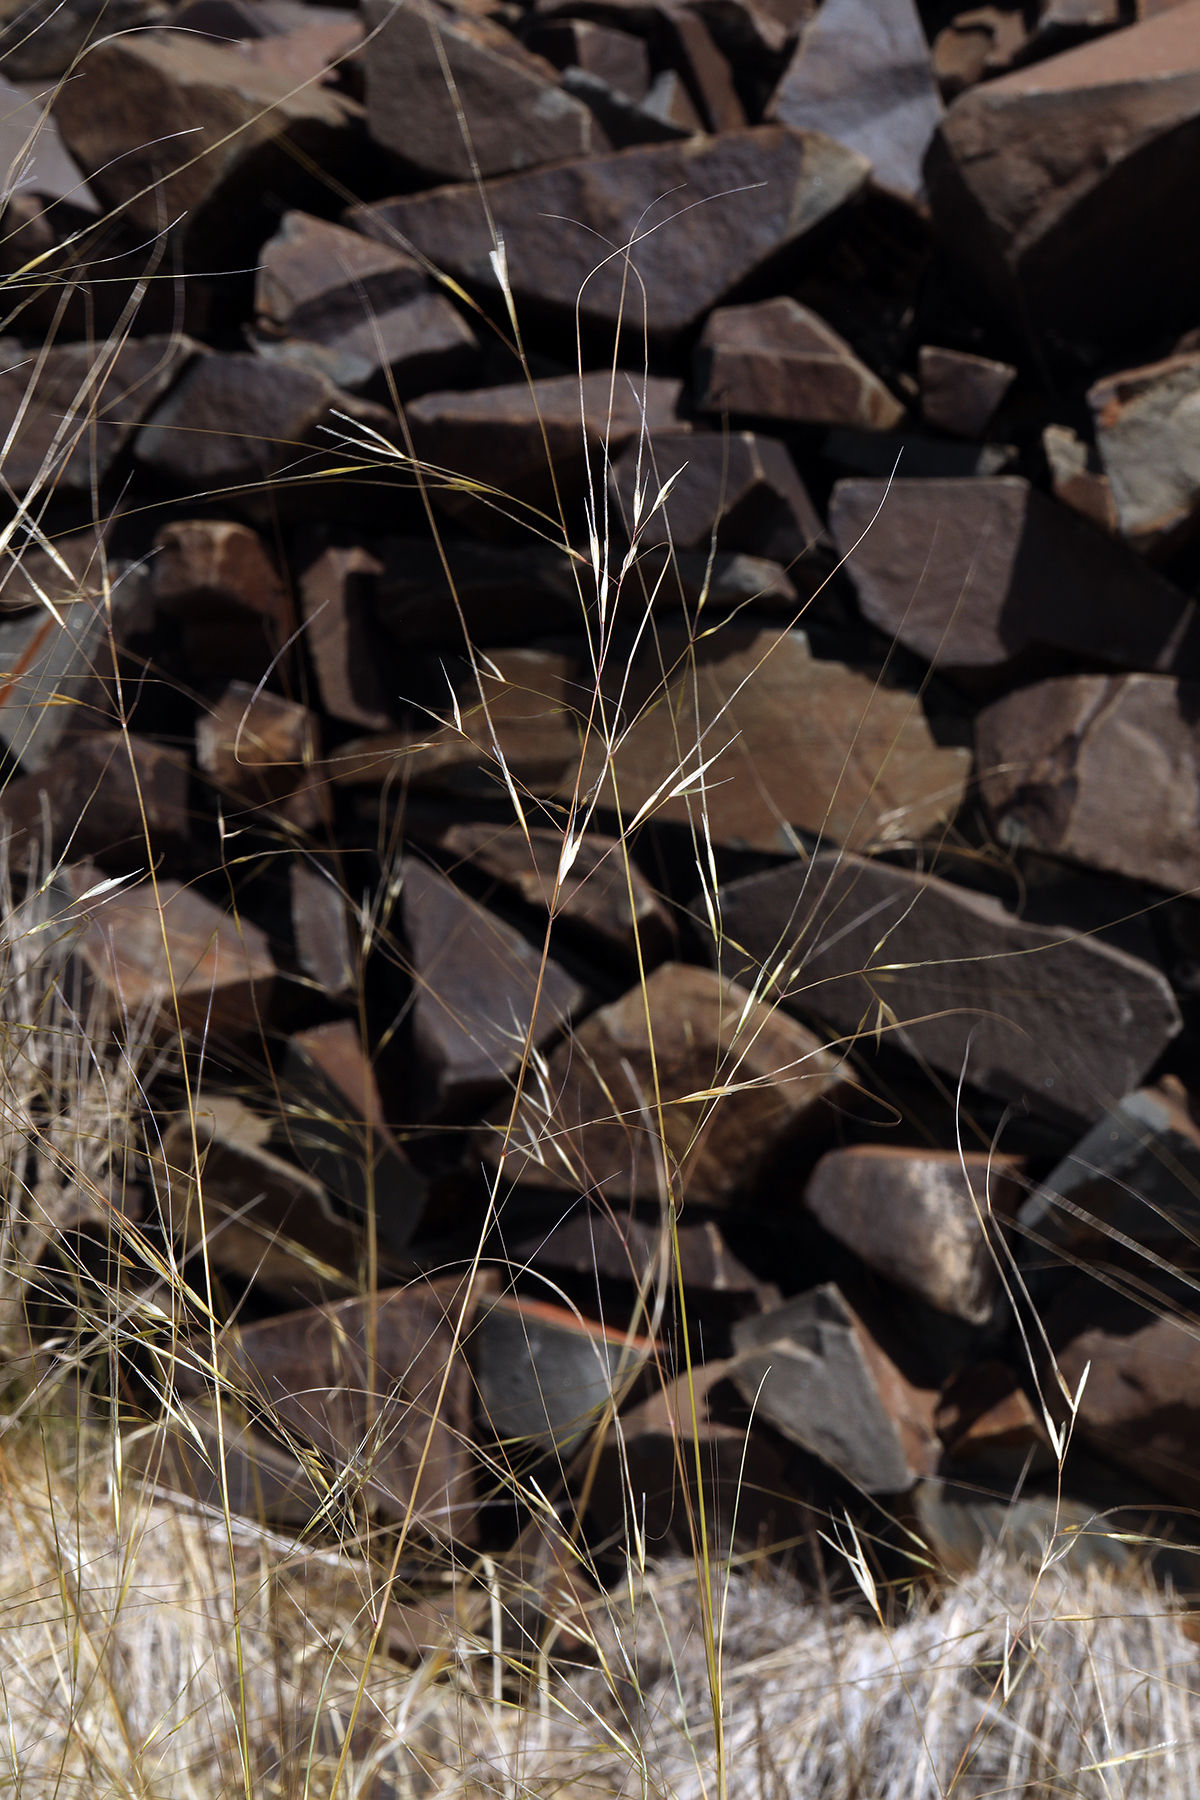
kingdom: Plantae
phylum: Tracheophyta
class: Liliopsida
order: Poales
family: Poaceae
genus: Hesperostipa
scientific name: Hesperostipa comata
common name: Needle-and-thread grass
